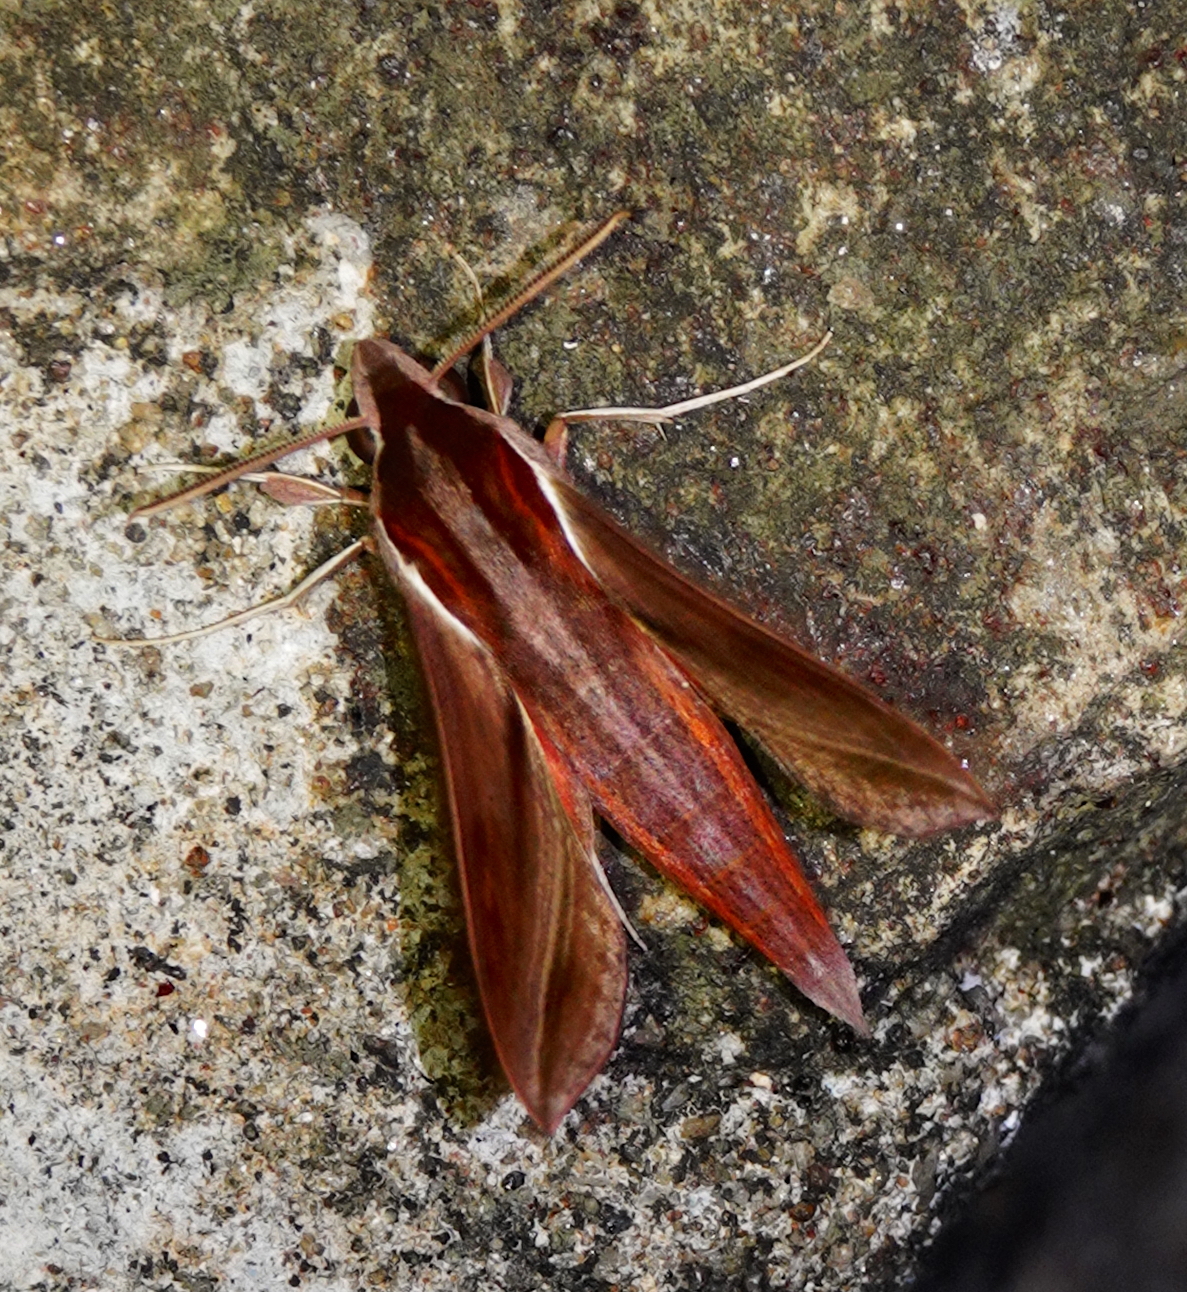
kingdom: Animalia
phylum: Arthropoda
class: Insecta
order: Lepidoptera
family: Sphingidae
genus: Hippotion
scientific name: Hippotion rosetta
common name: Vine hawk moth
